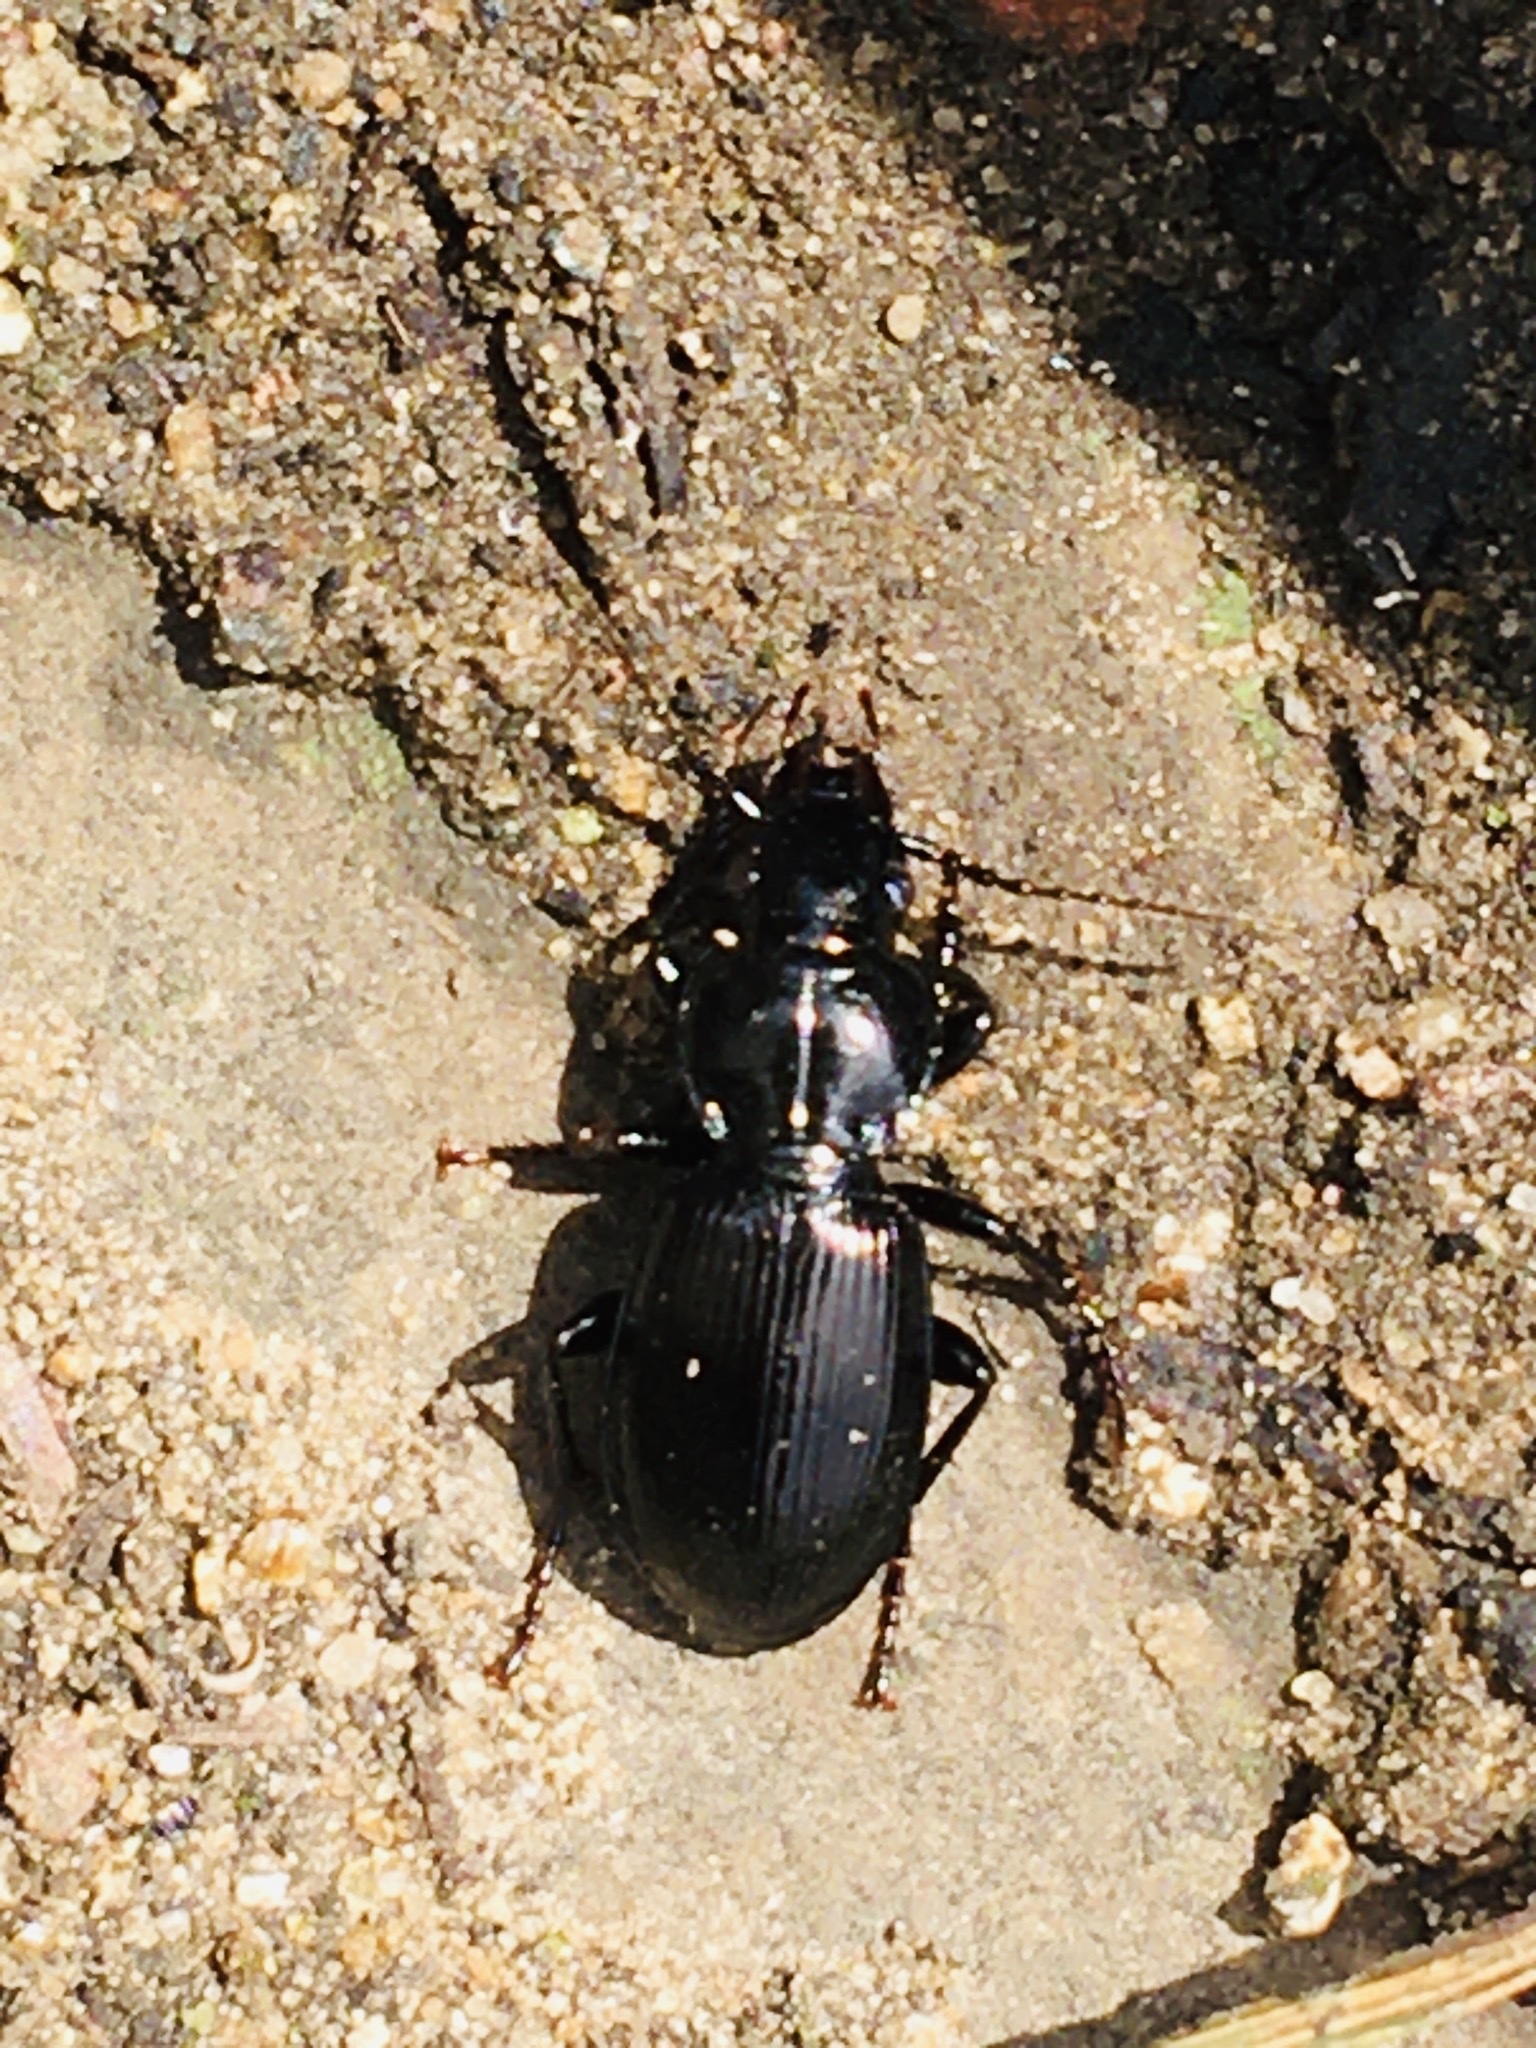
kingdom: Animalia
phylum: Arthropoda
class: Insecta
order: Coleoptera
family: Carabidae
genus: Pterostichus
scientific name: Pterostichus madidus
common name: Black clock
